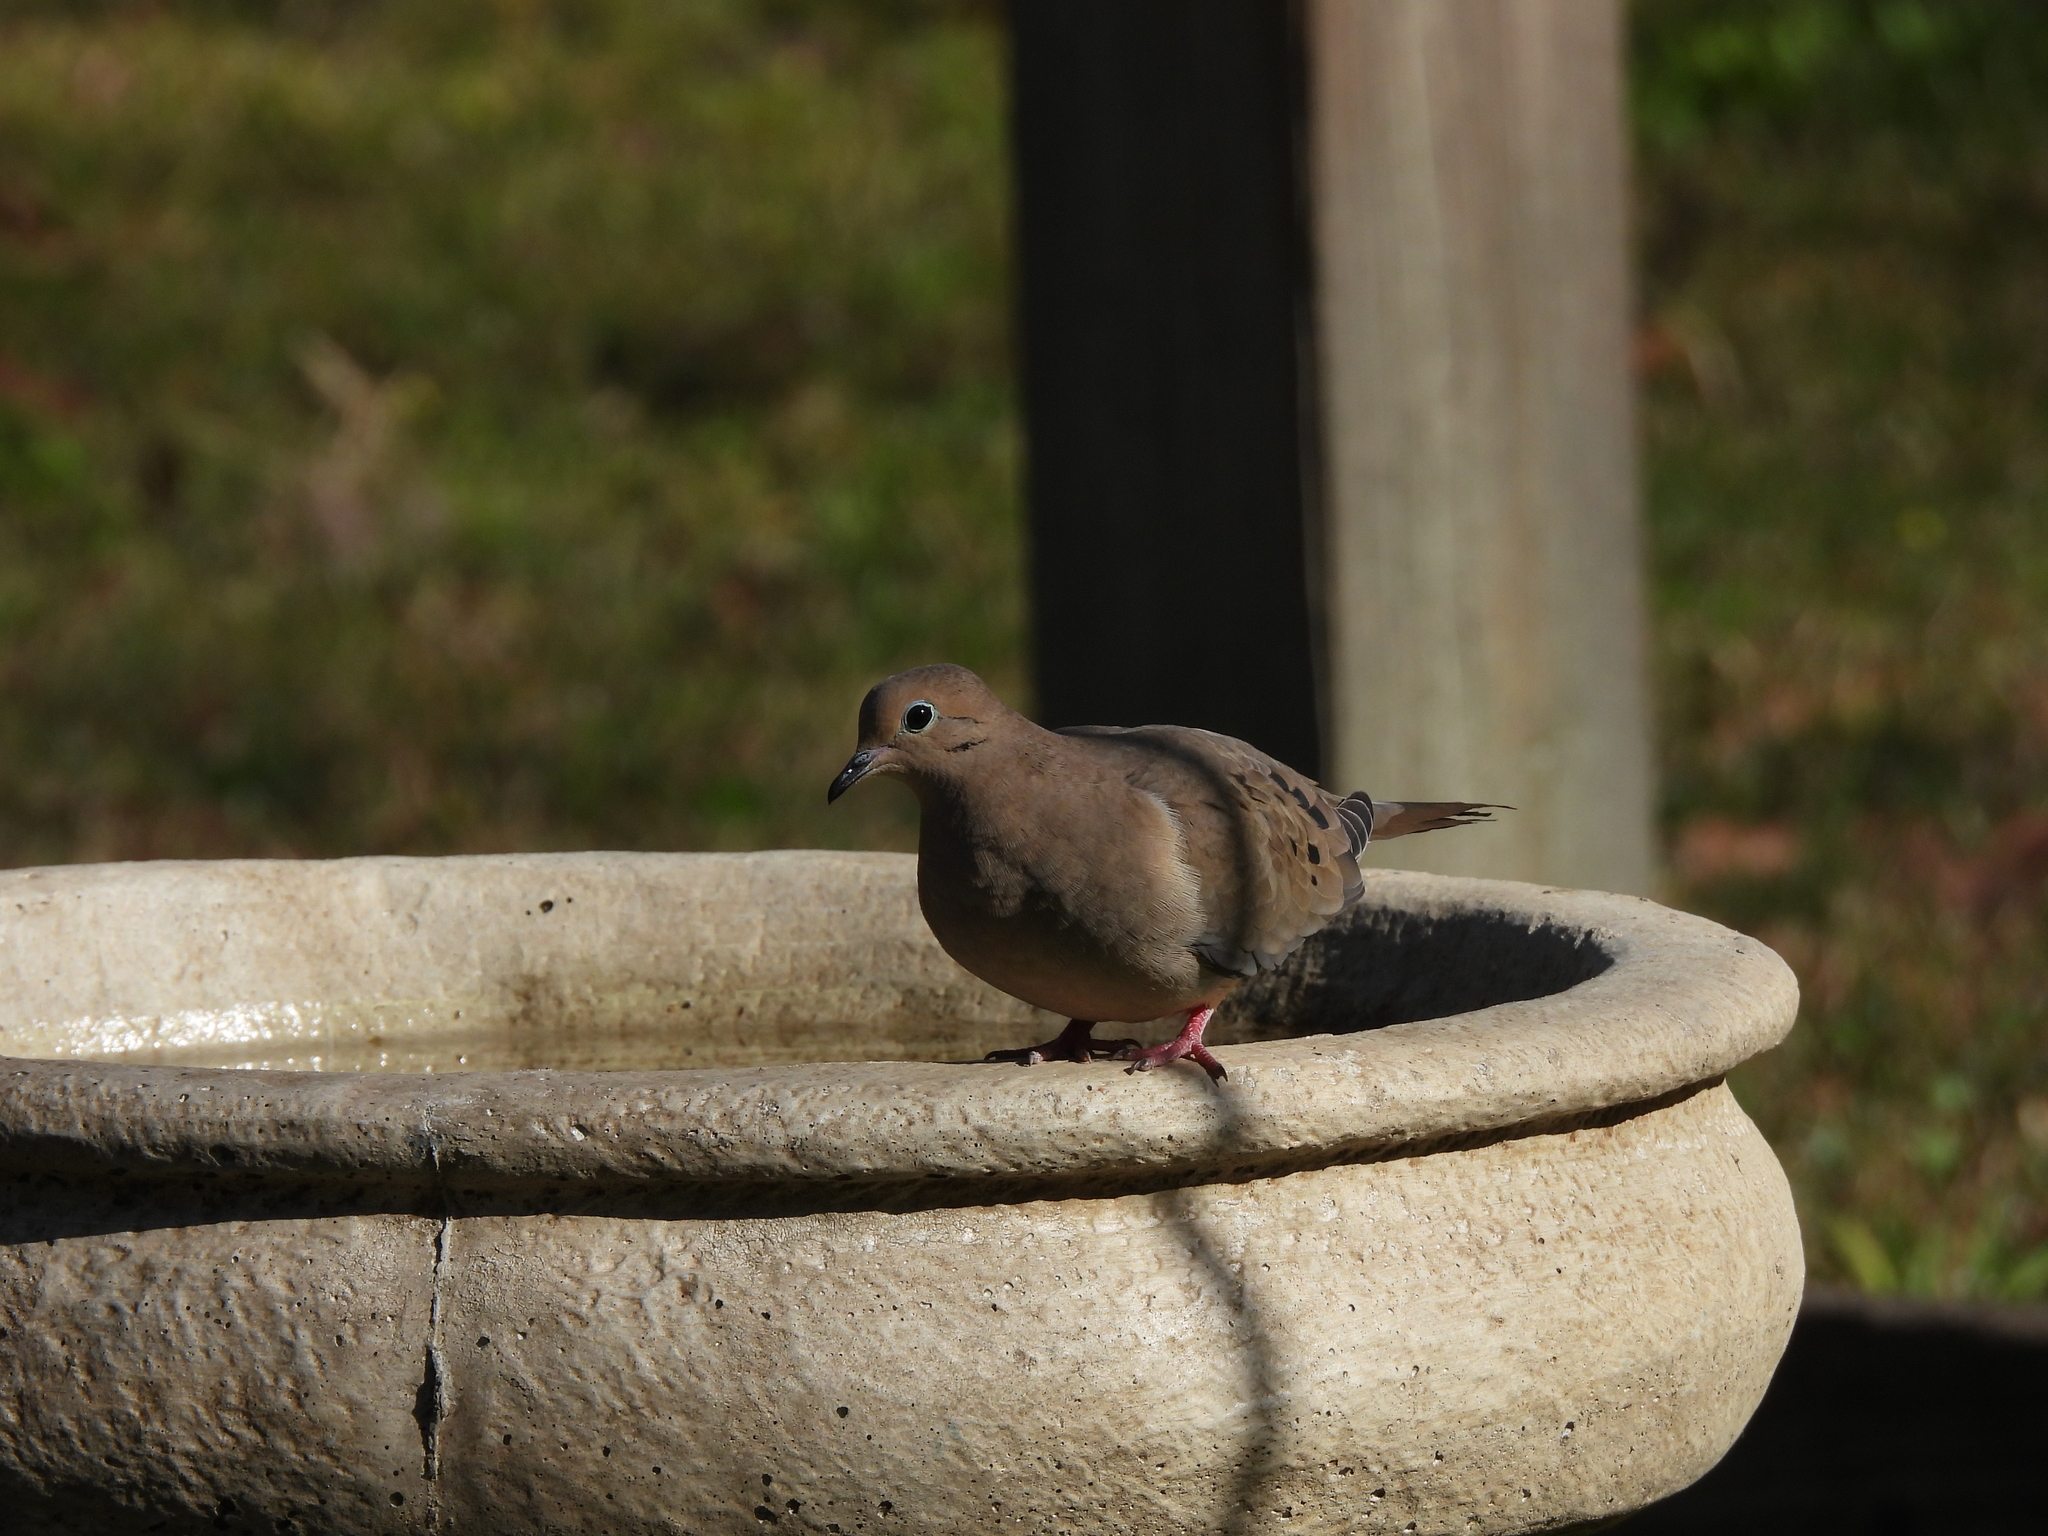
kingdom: Animalia
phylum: Chordata
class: Aves
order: Columbiformes
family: Columbidae
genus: Zenaida
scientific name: Zenaida macroura
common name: Mourning dove
